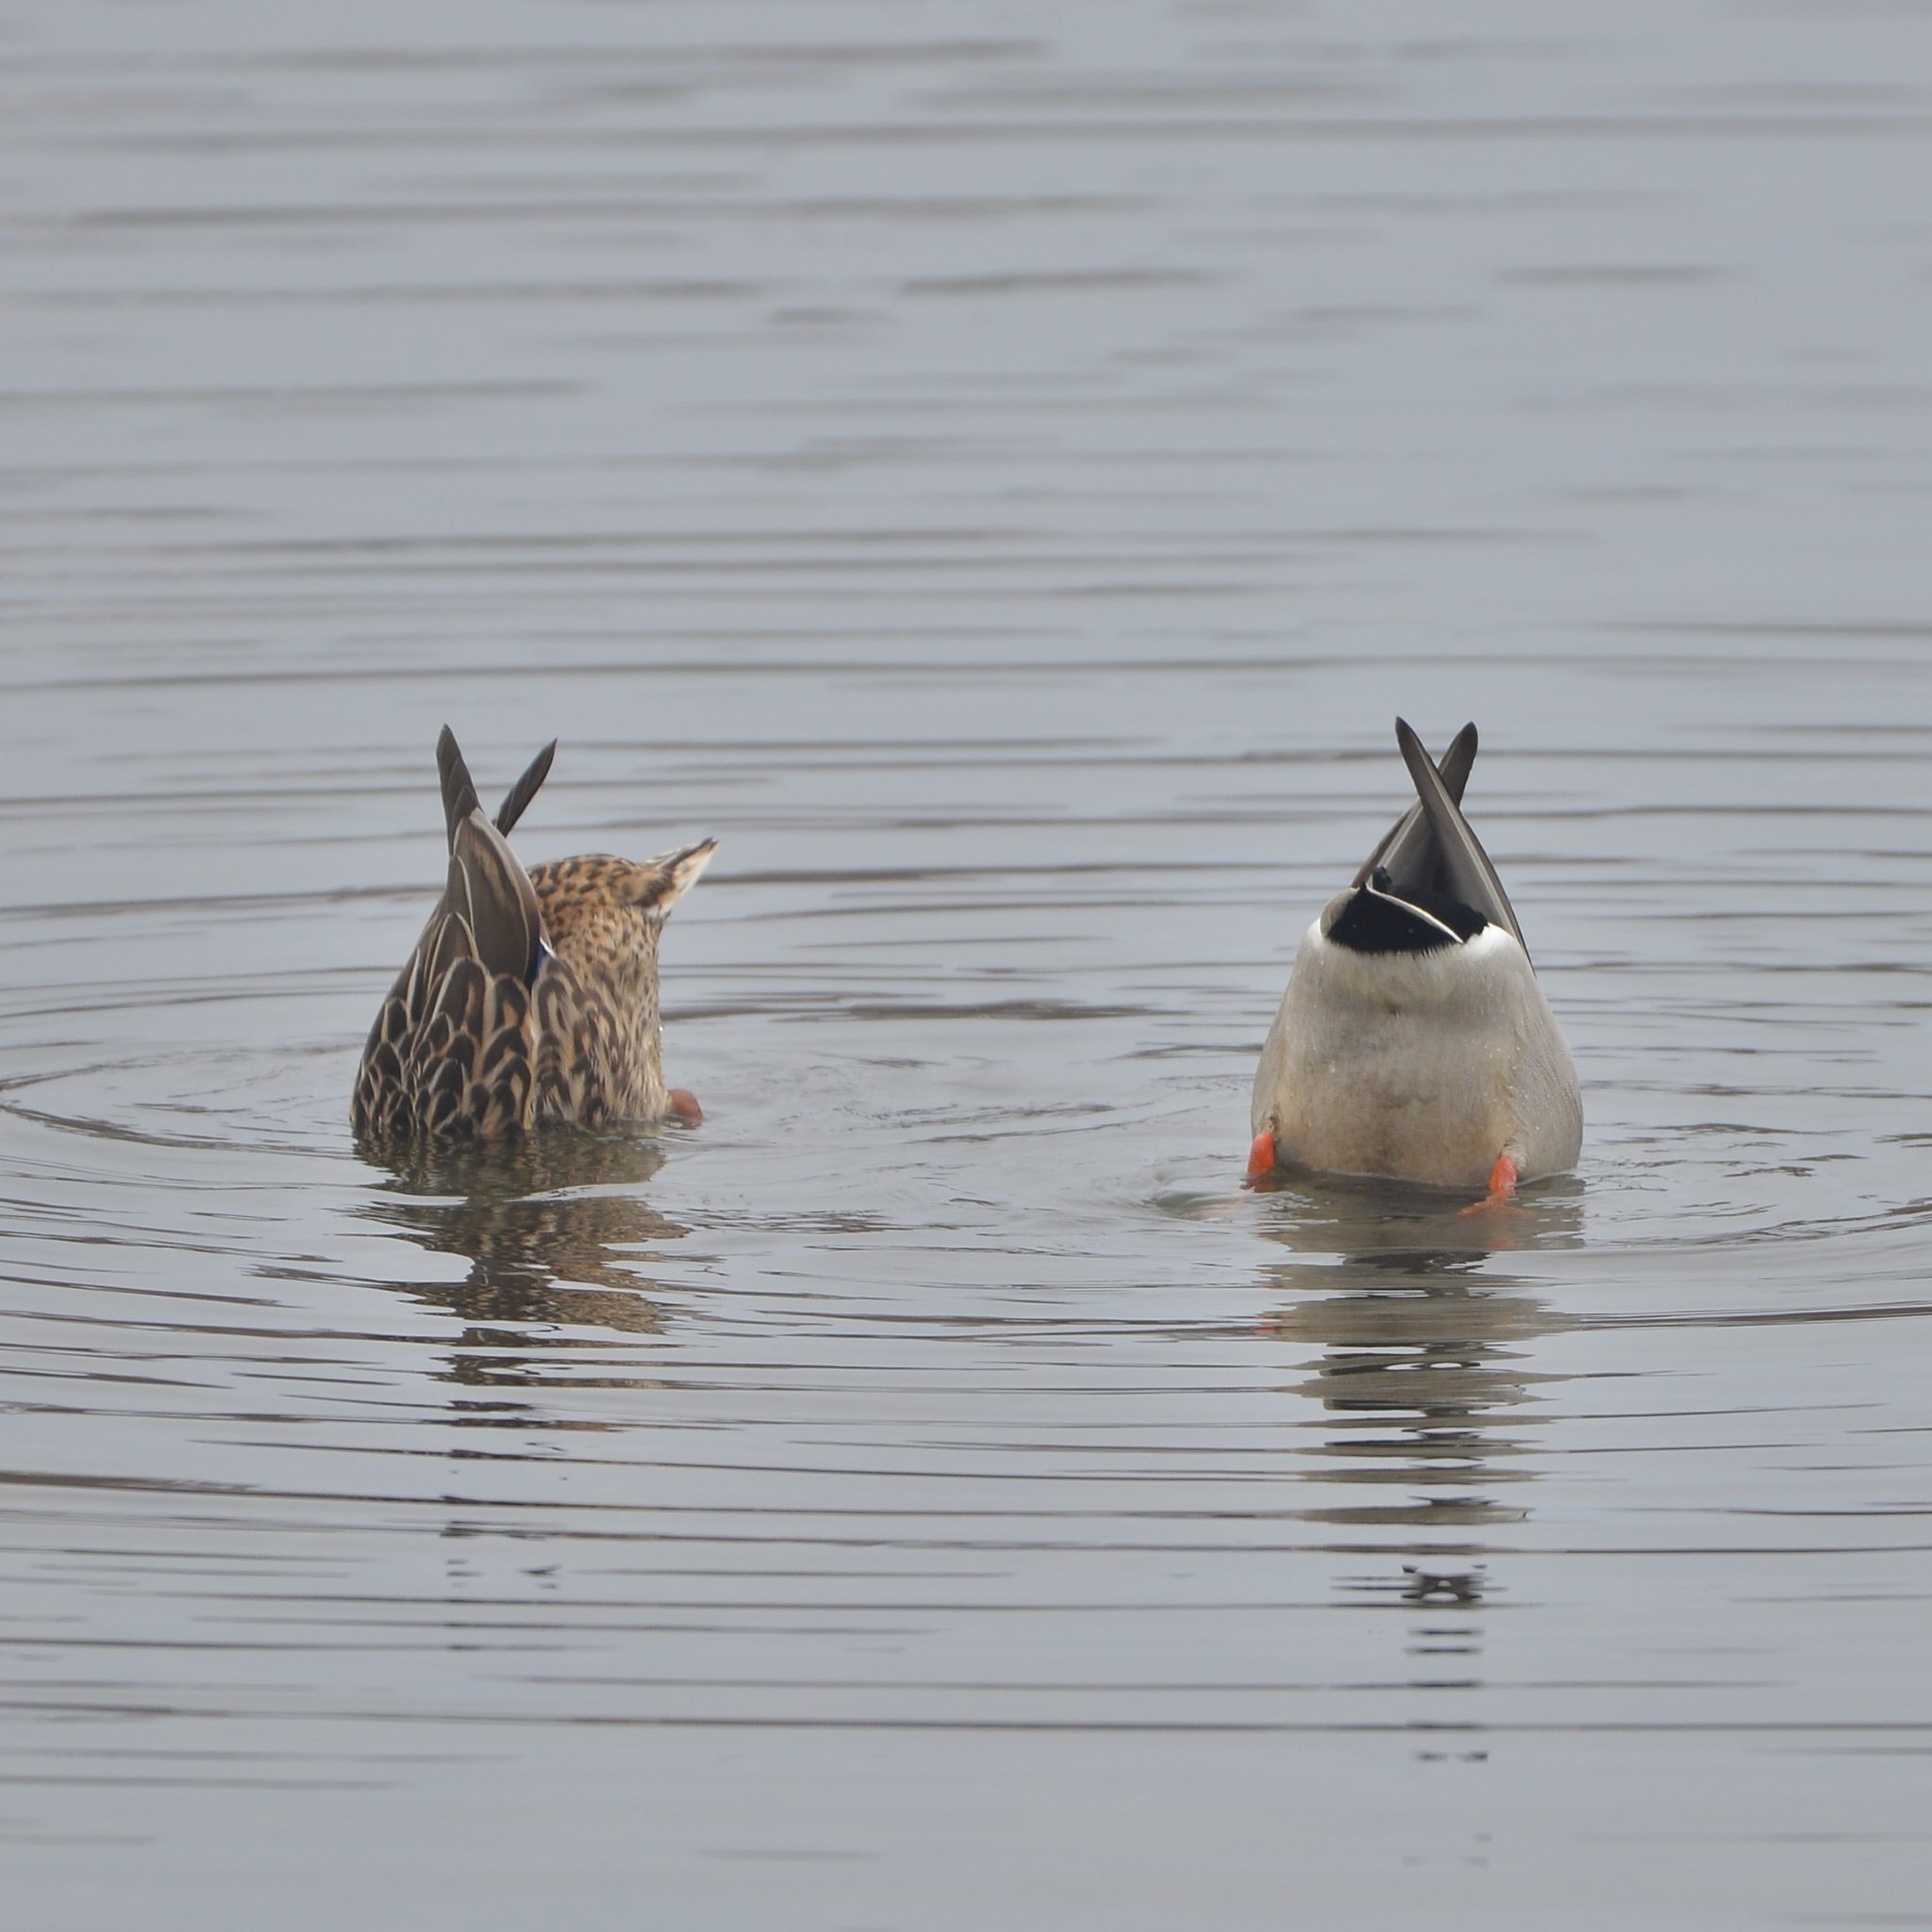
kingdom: Animalia
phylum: Chordata
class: Aves
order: Anseriformes
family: Anatidae
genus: Anas
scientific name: Anas platyrhynchos
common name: Mallard
